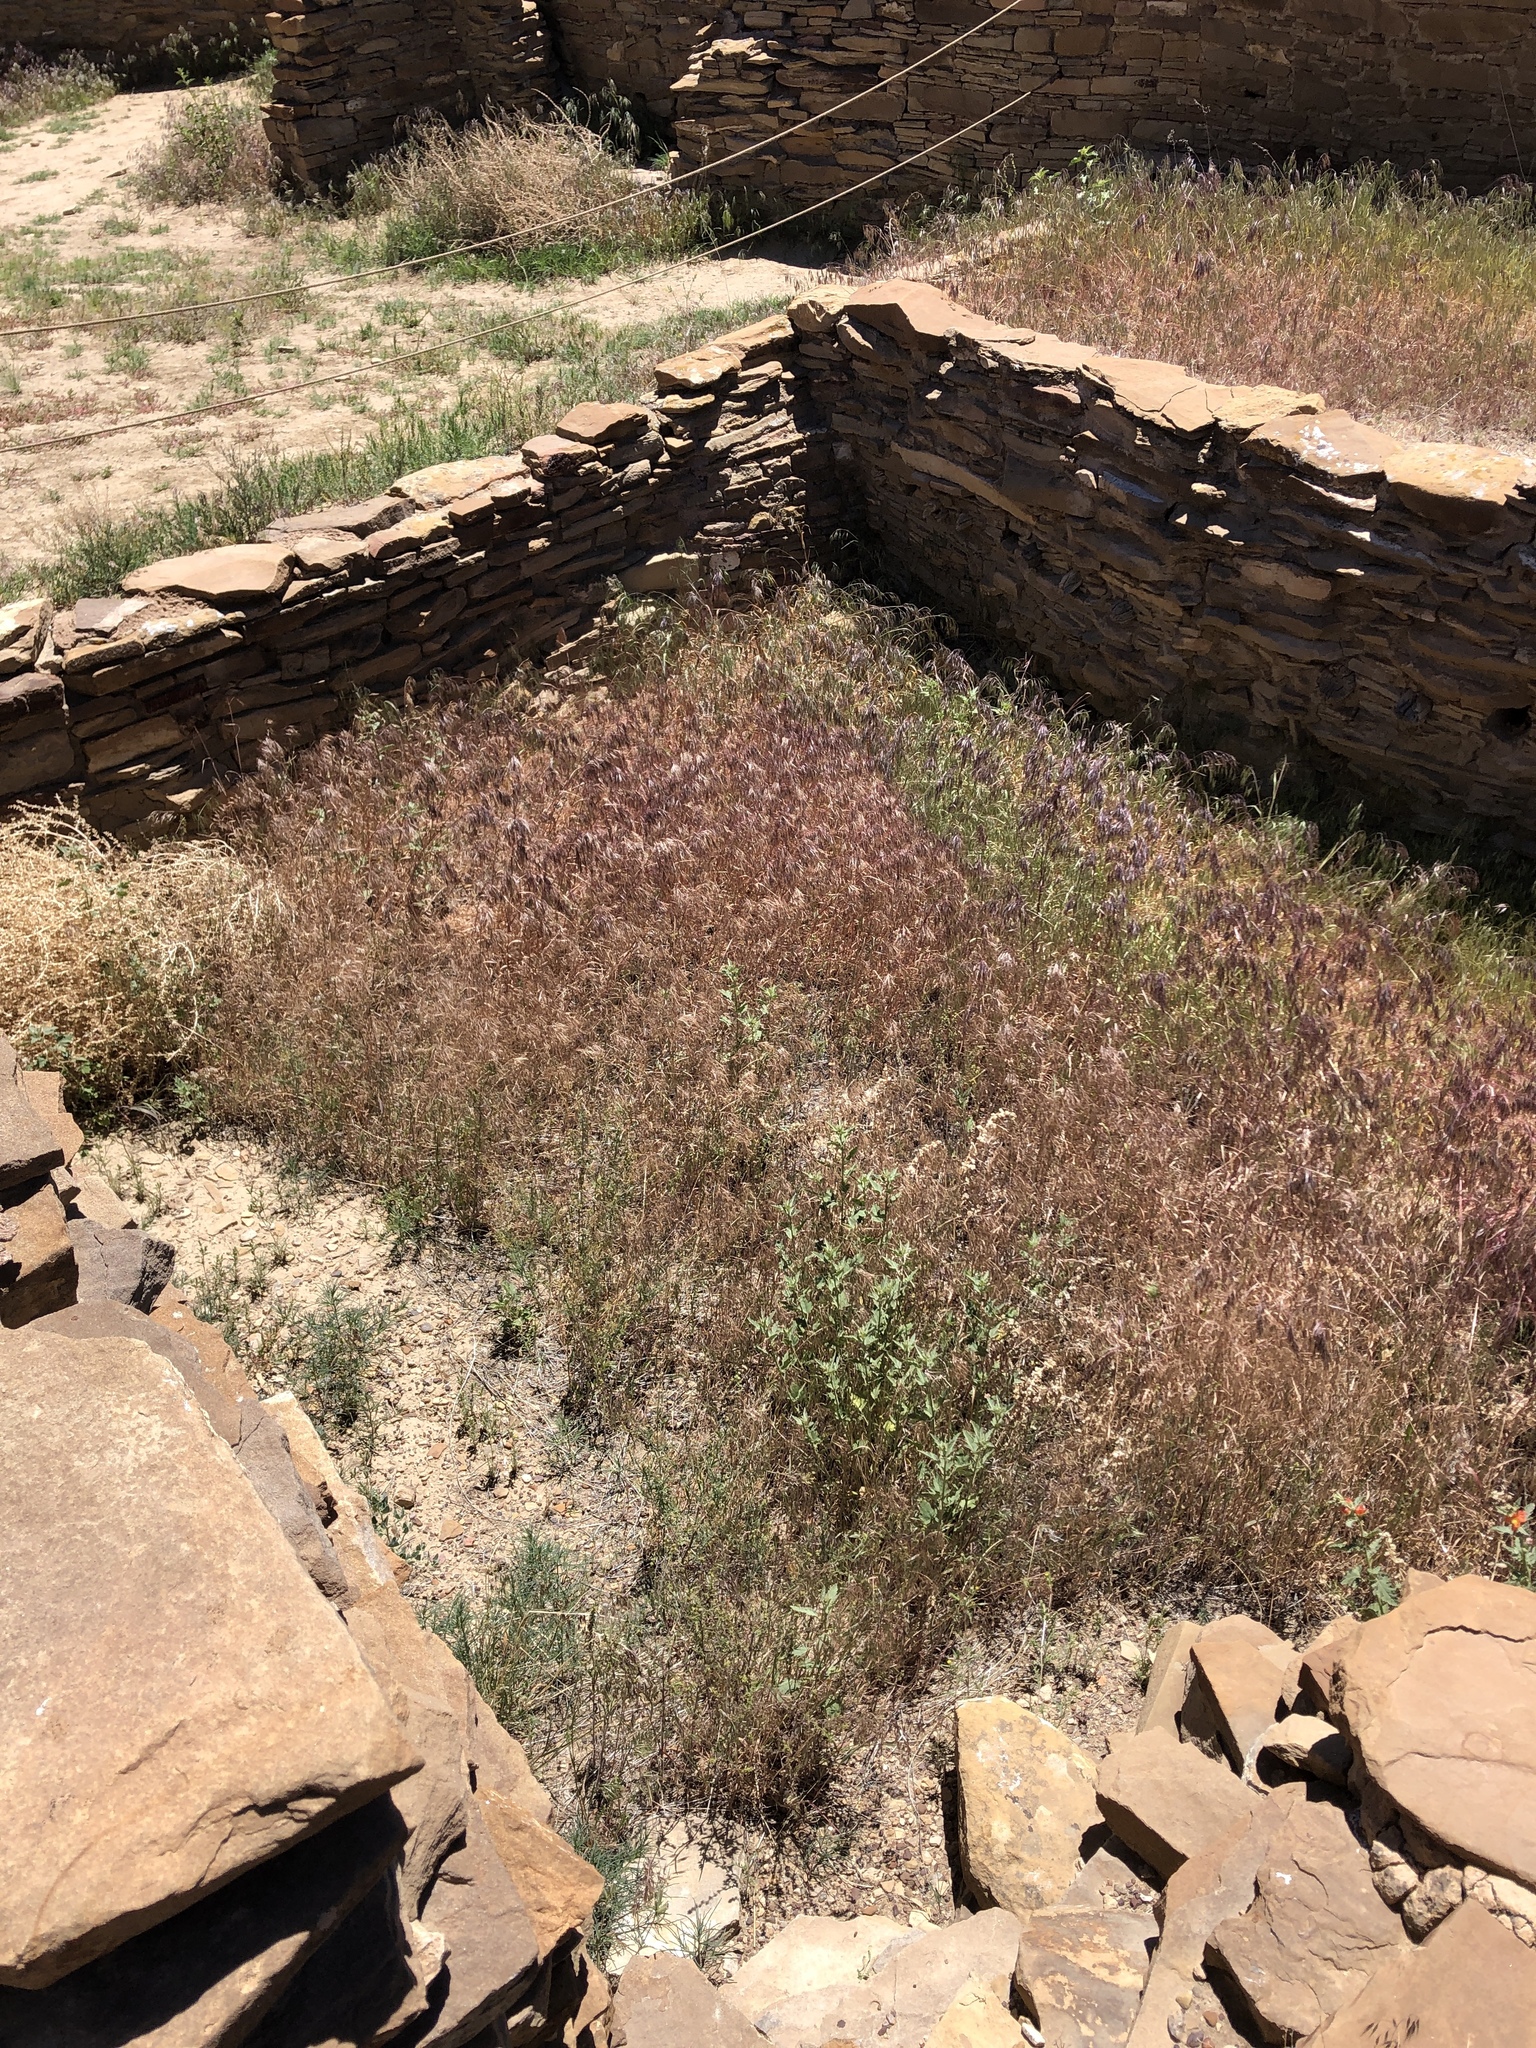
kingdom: Plantae
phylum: Tracheophyta
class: Liliopsida
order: Poales
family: Poaceae
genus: Bromus
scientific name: Bromus tectorum
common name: Cheatgrass
